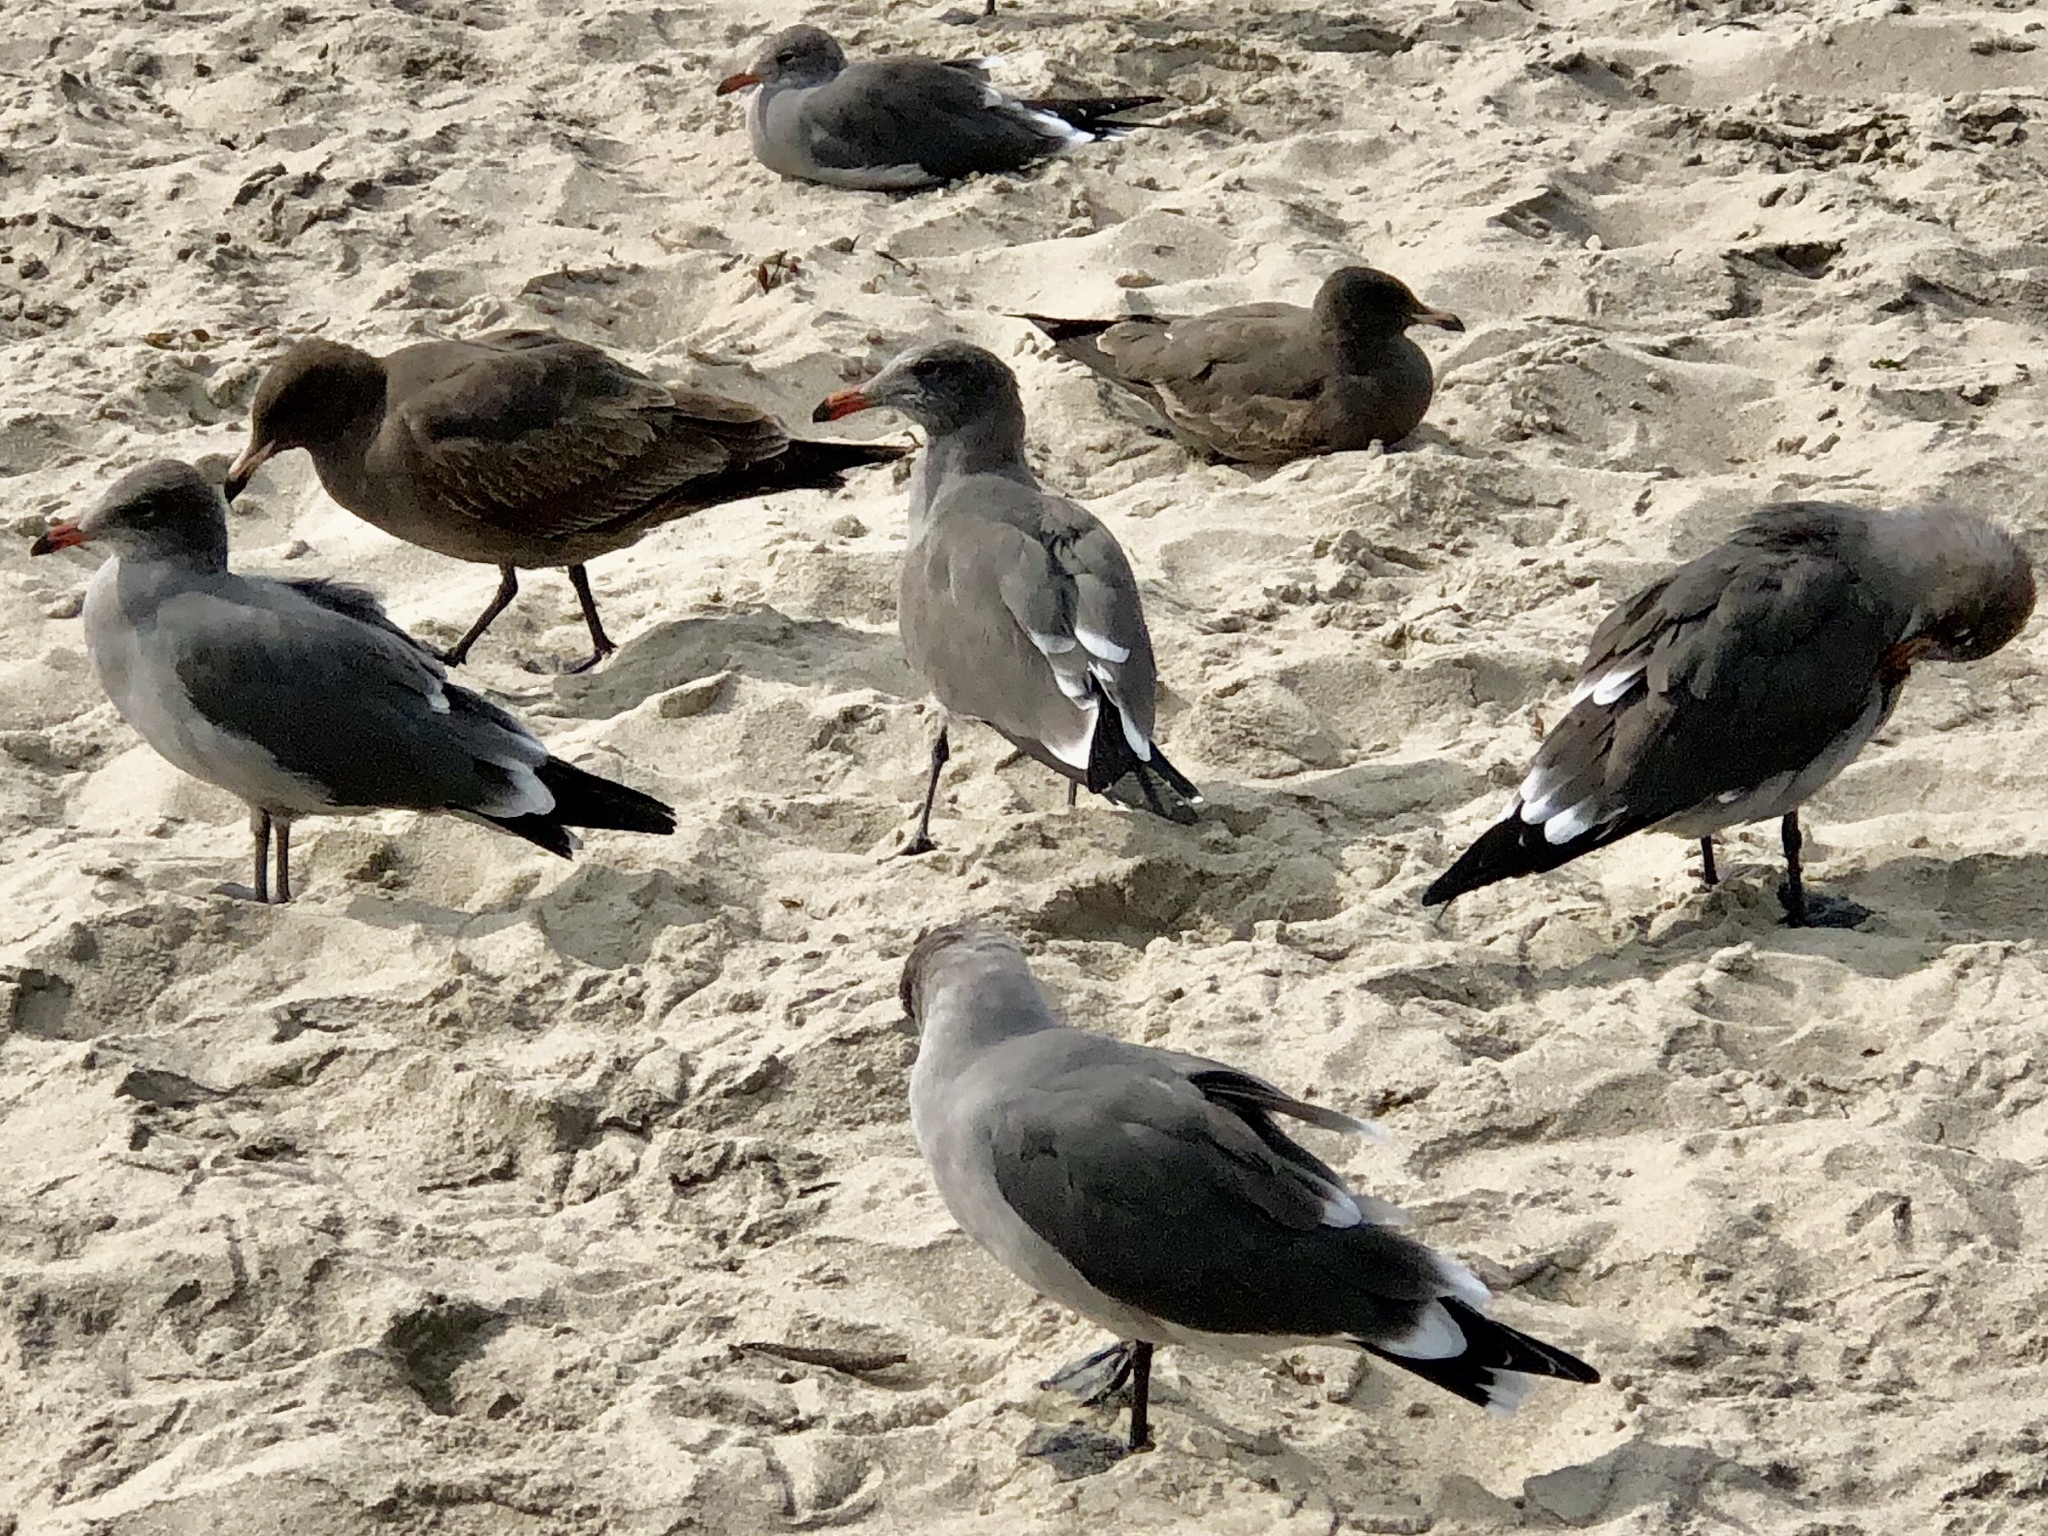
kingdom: Animalia
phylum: Chordata
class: Aves
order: Charadriiformes
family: Laridae
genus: Larus
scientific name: Larus heermanni
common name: Heermann's gull
